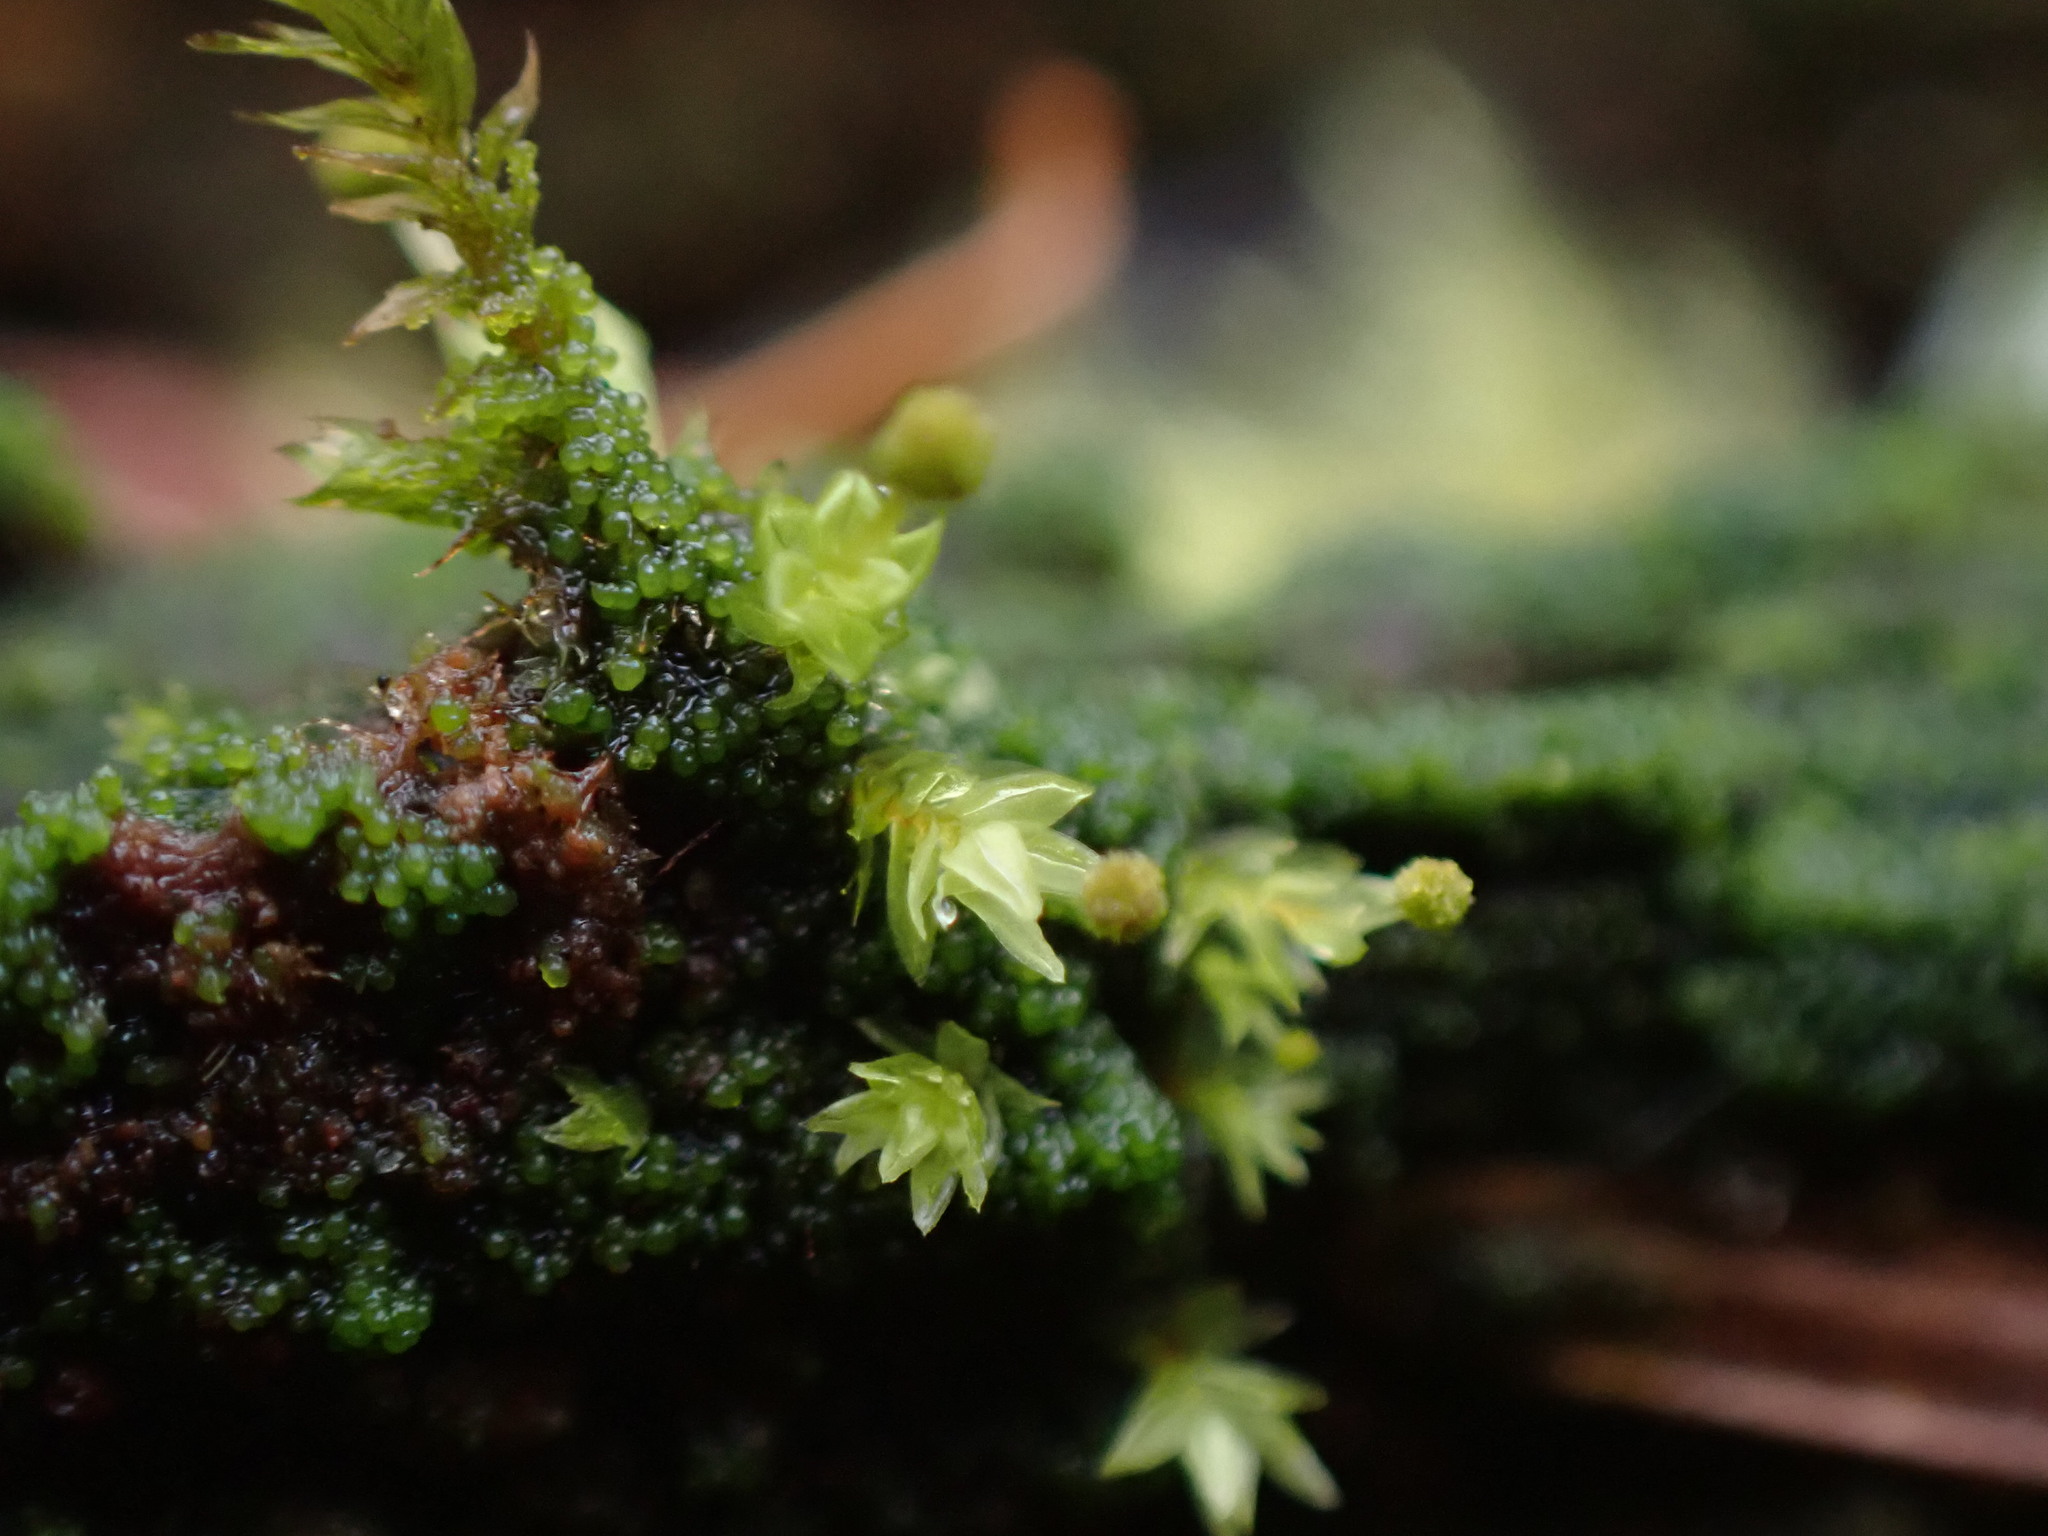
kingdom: Plantae
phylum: Bryophyta
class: Bryopsida
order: Aulacomniales
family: Aulacomniaceae
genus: Aulacomnium
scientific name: Aulacomnium androgynum
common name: Little groove moss
